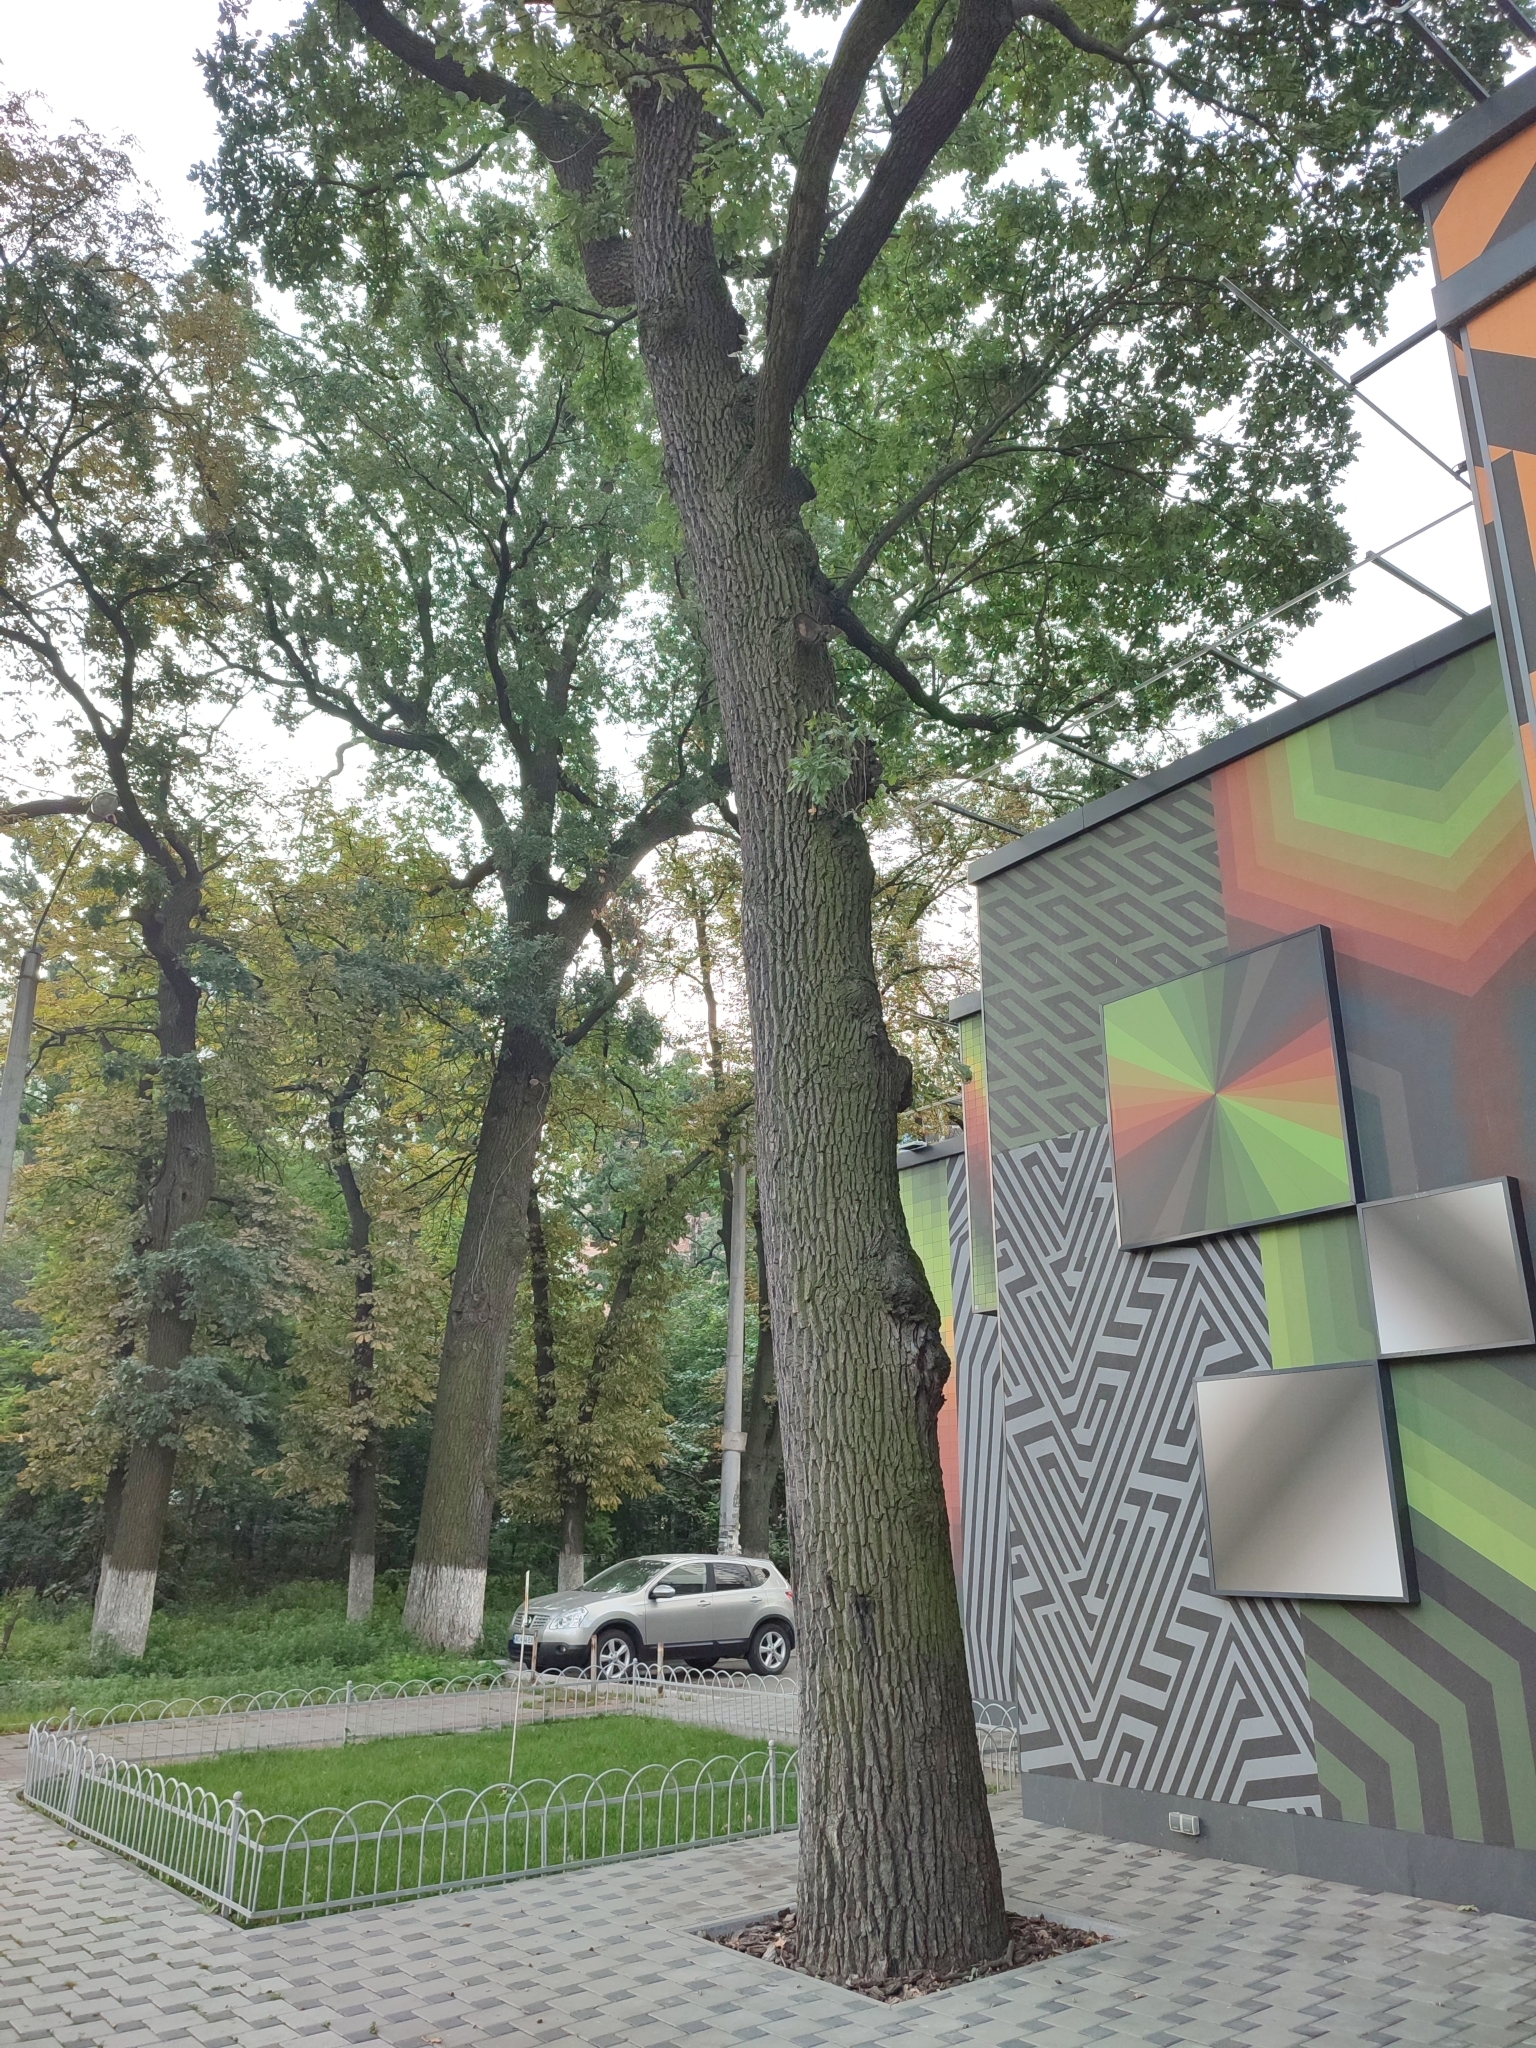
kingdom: Plantae
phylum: Tracheophyta
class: Magnoliopsida
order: Fagales
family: Fagaceae
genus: Quercus
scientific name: Quercus robur
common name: Pedunculate oak
